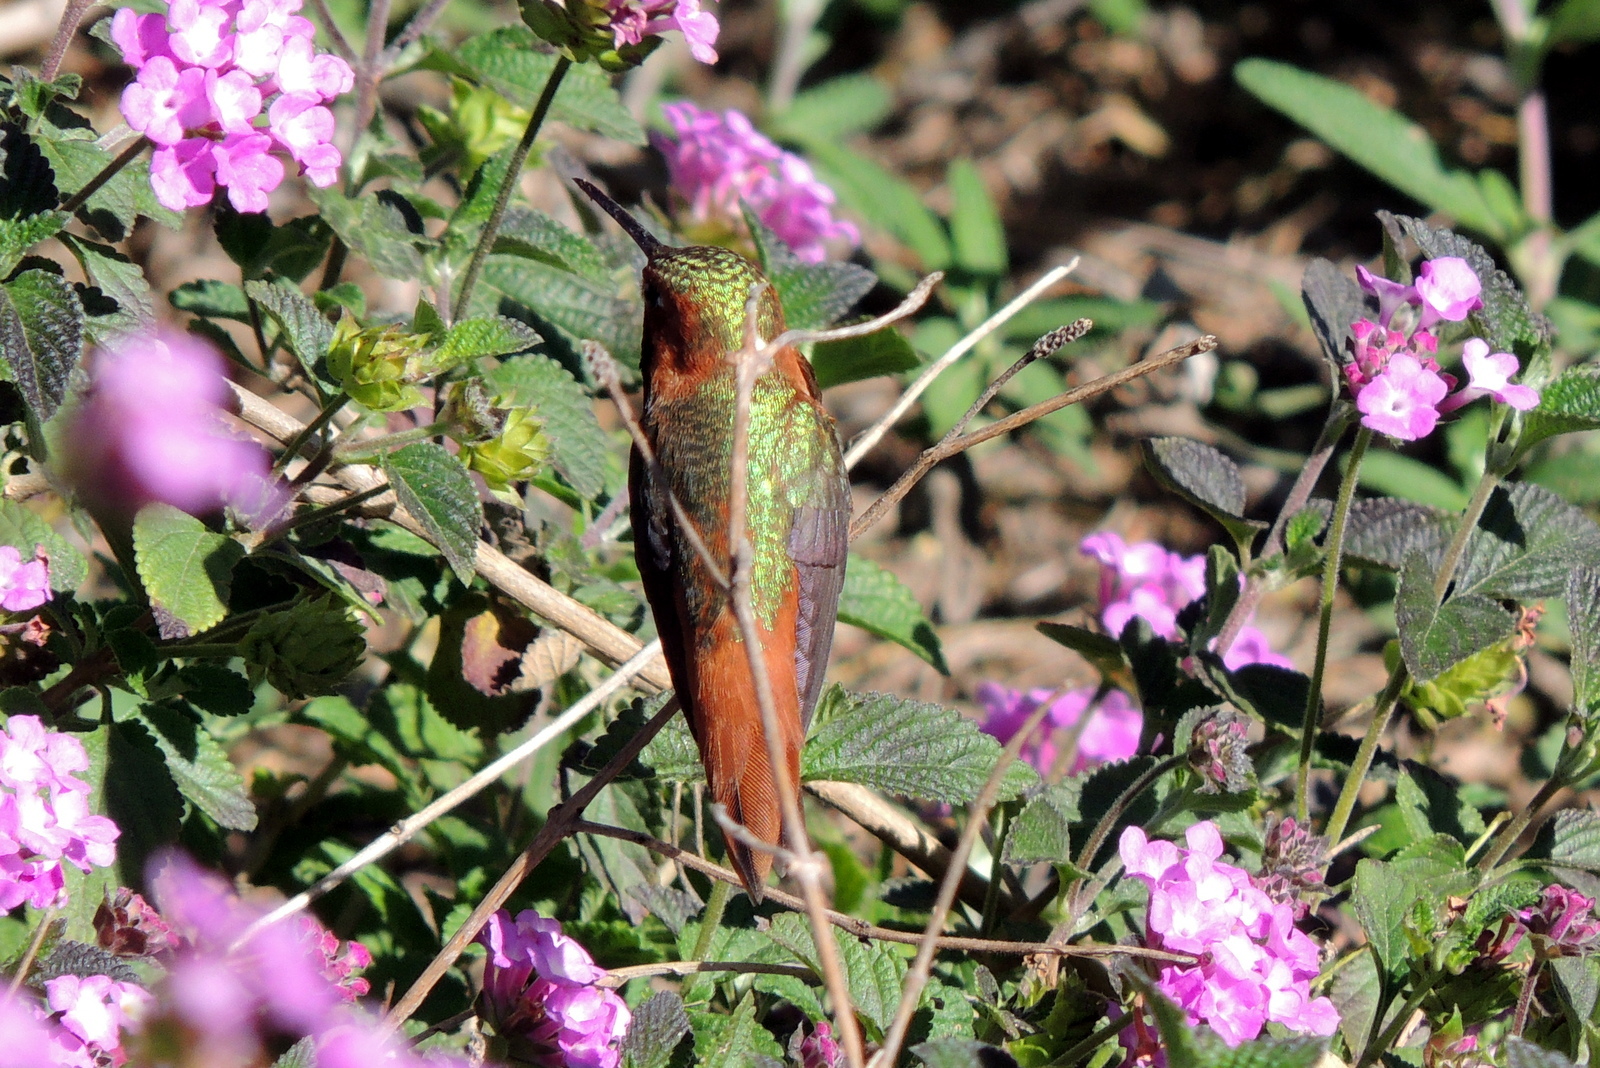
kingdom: Animalia
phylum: Chordata
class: Aves
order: Apodiformes
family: Trochilidae
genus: Selasphorus
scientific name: Selasphorus sasin
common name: Allen's hummingbird
